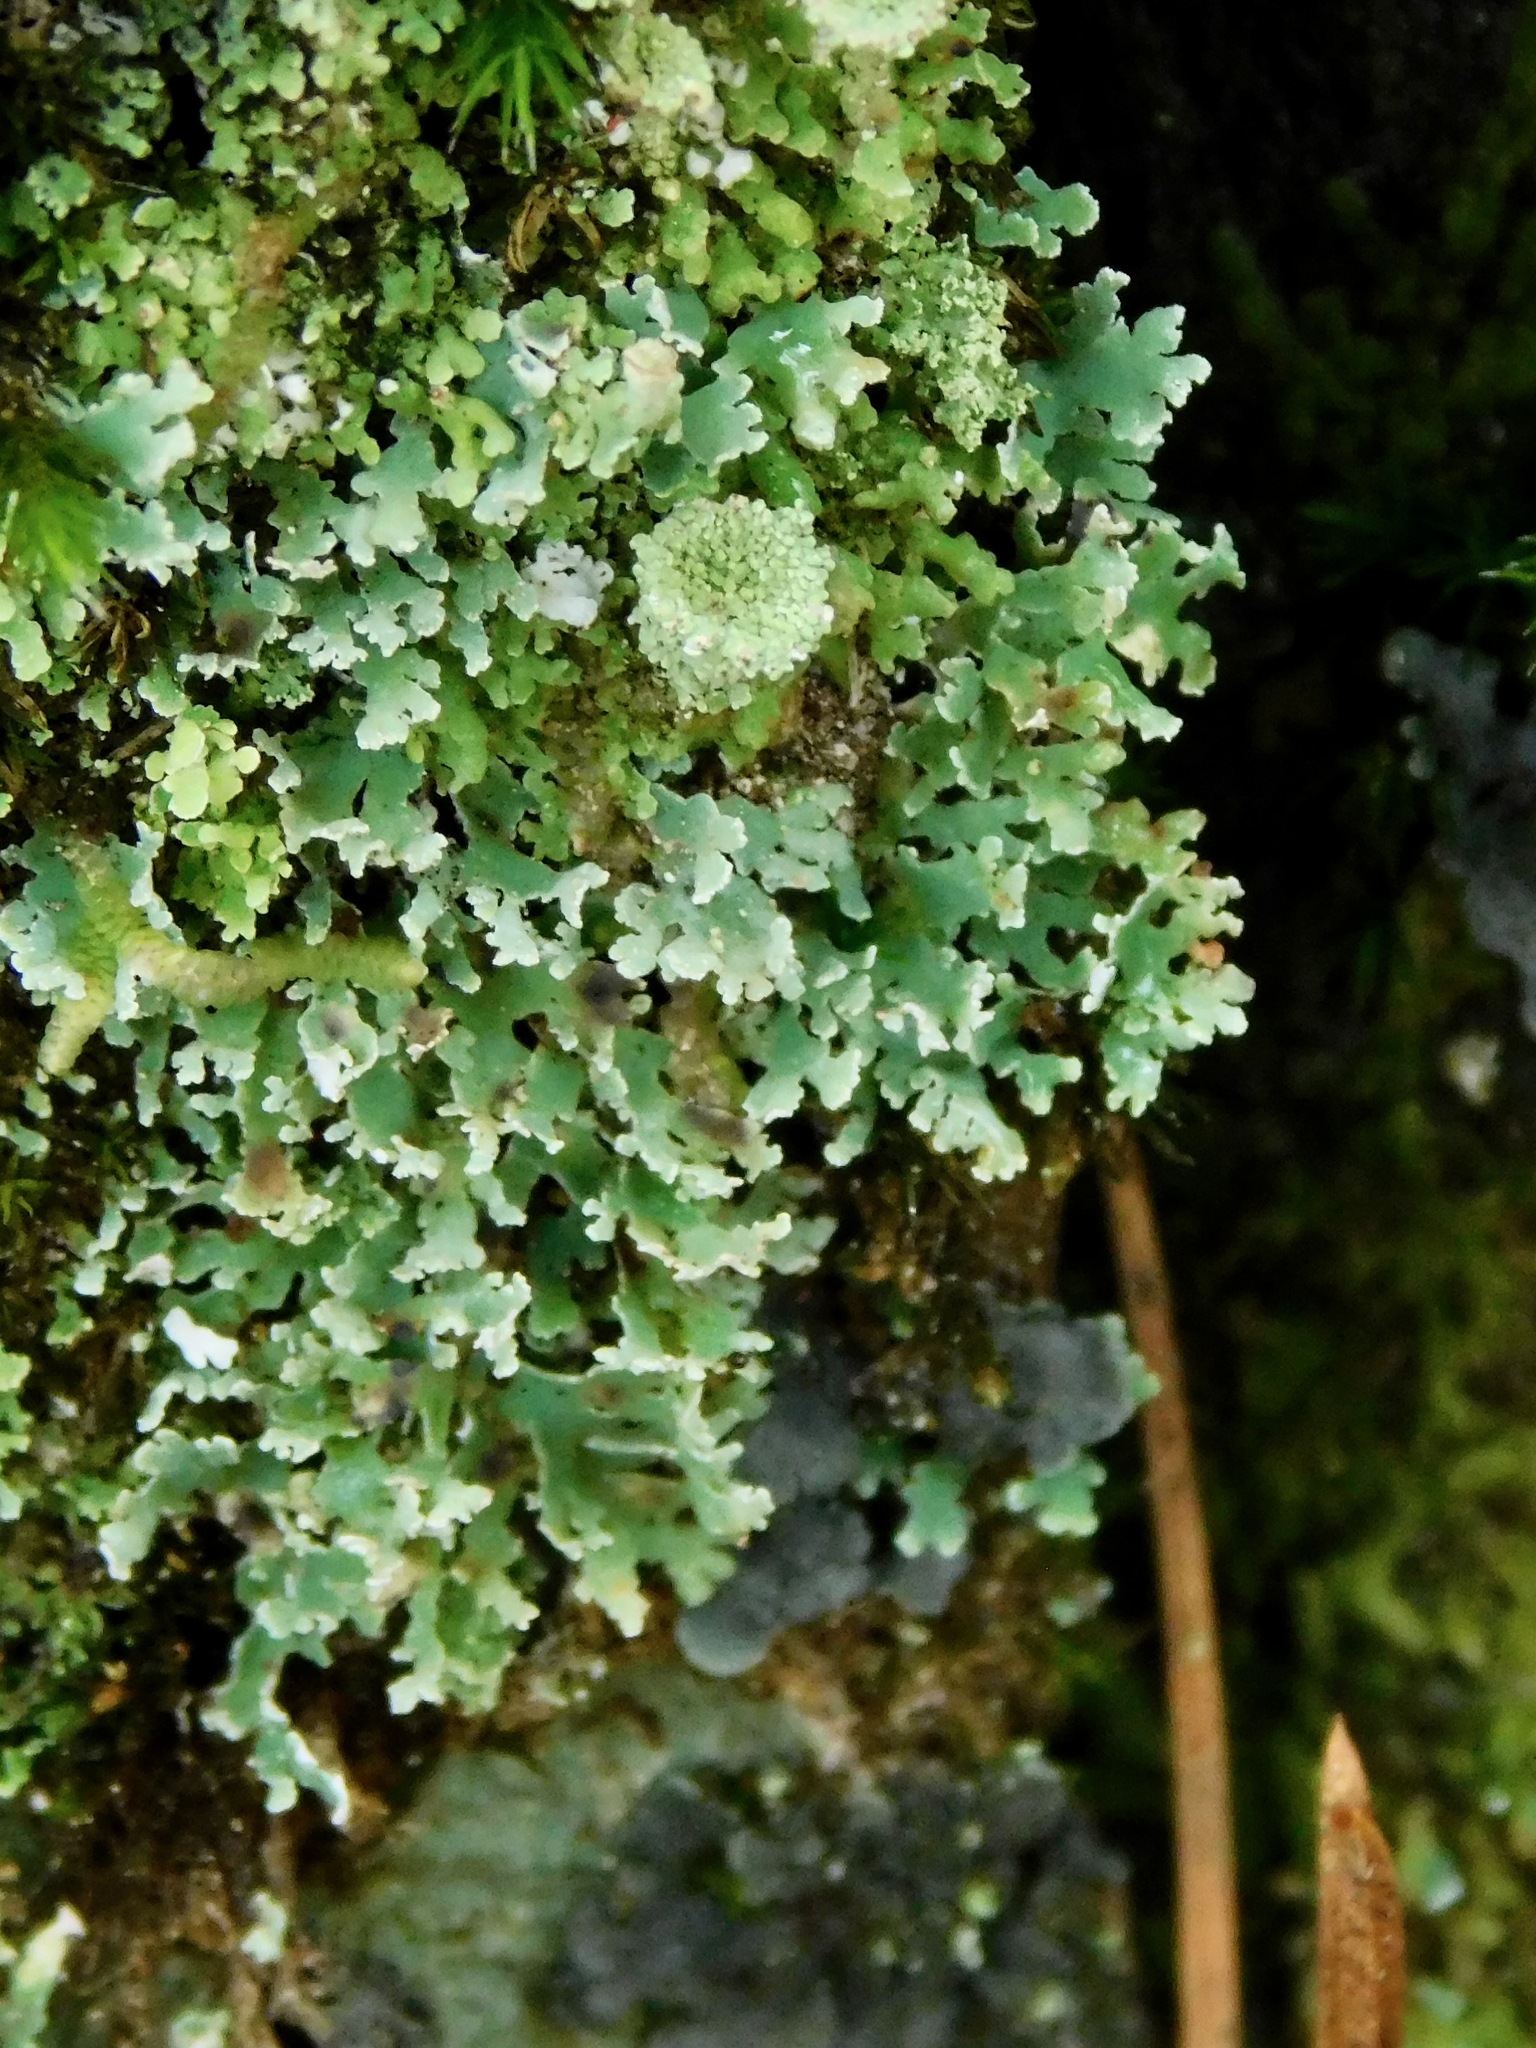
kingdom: Fungi
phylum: Ascomycota
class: Lecanoromycetes
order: Lecanorales
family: Cladoniaceae
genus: Cladonia
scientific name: Cladonia pyxidata
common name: Pebbled pixie cup
